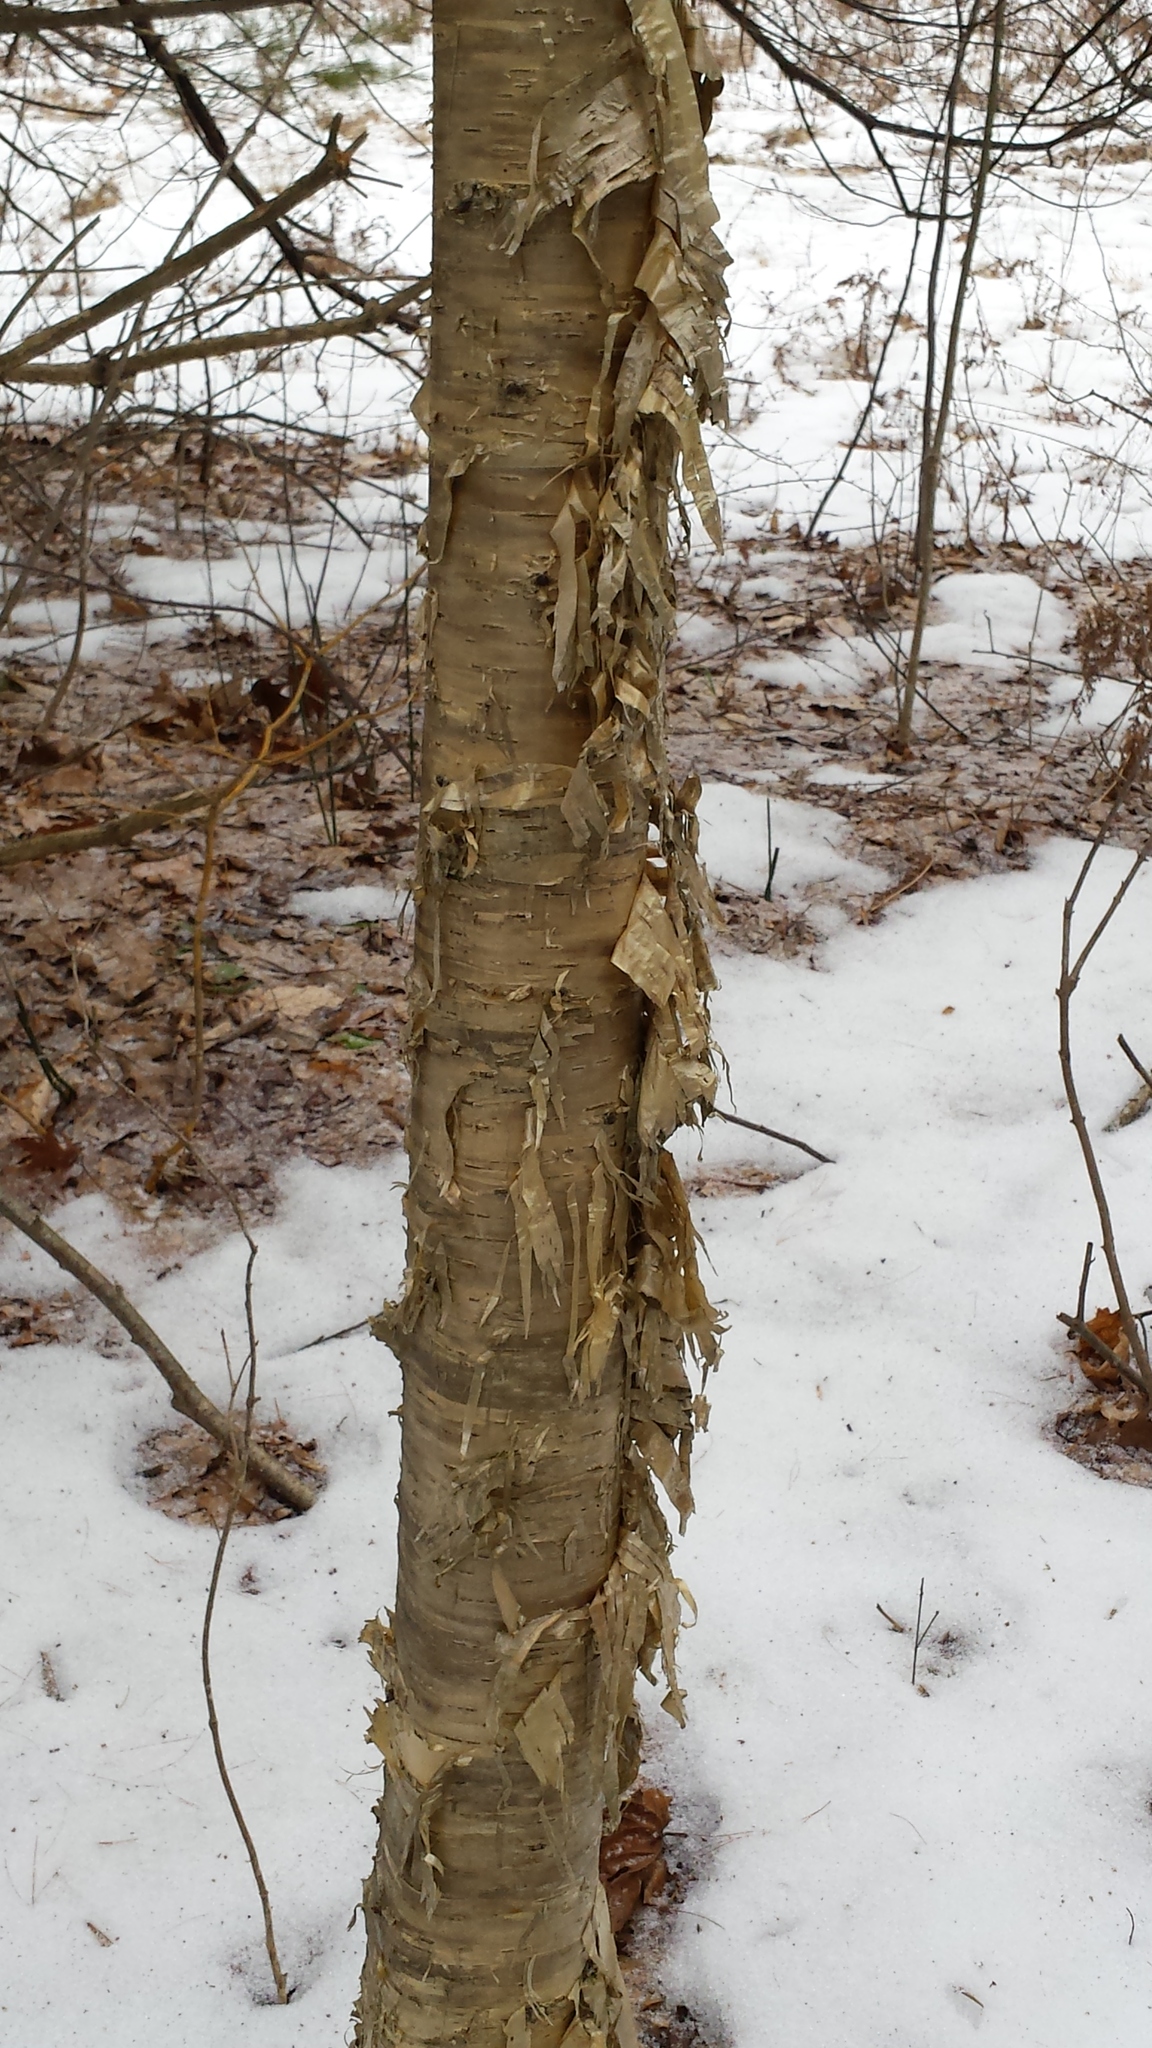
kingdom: Plantae
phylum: Tracheophyta
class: Magnoliopsida
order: Fagales
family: Betulaceae
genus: Betula
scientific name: Betula alleghaniensis
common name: Yellow birch
